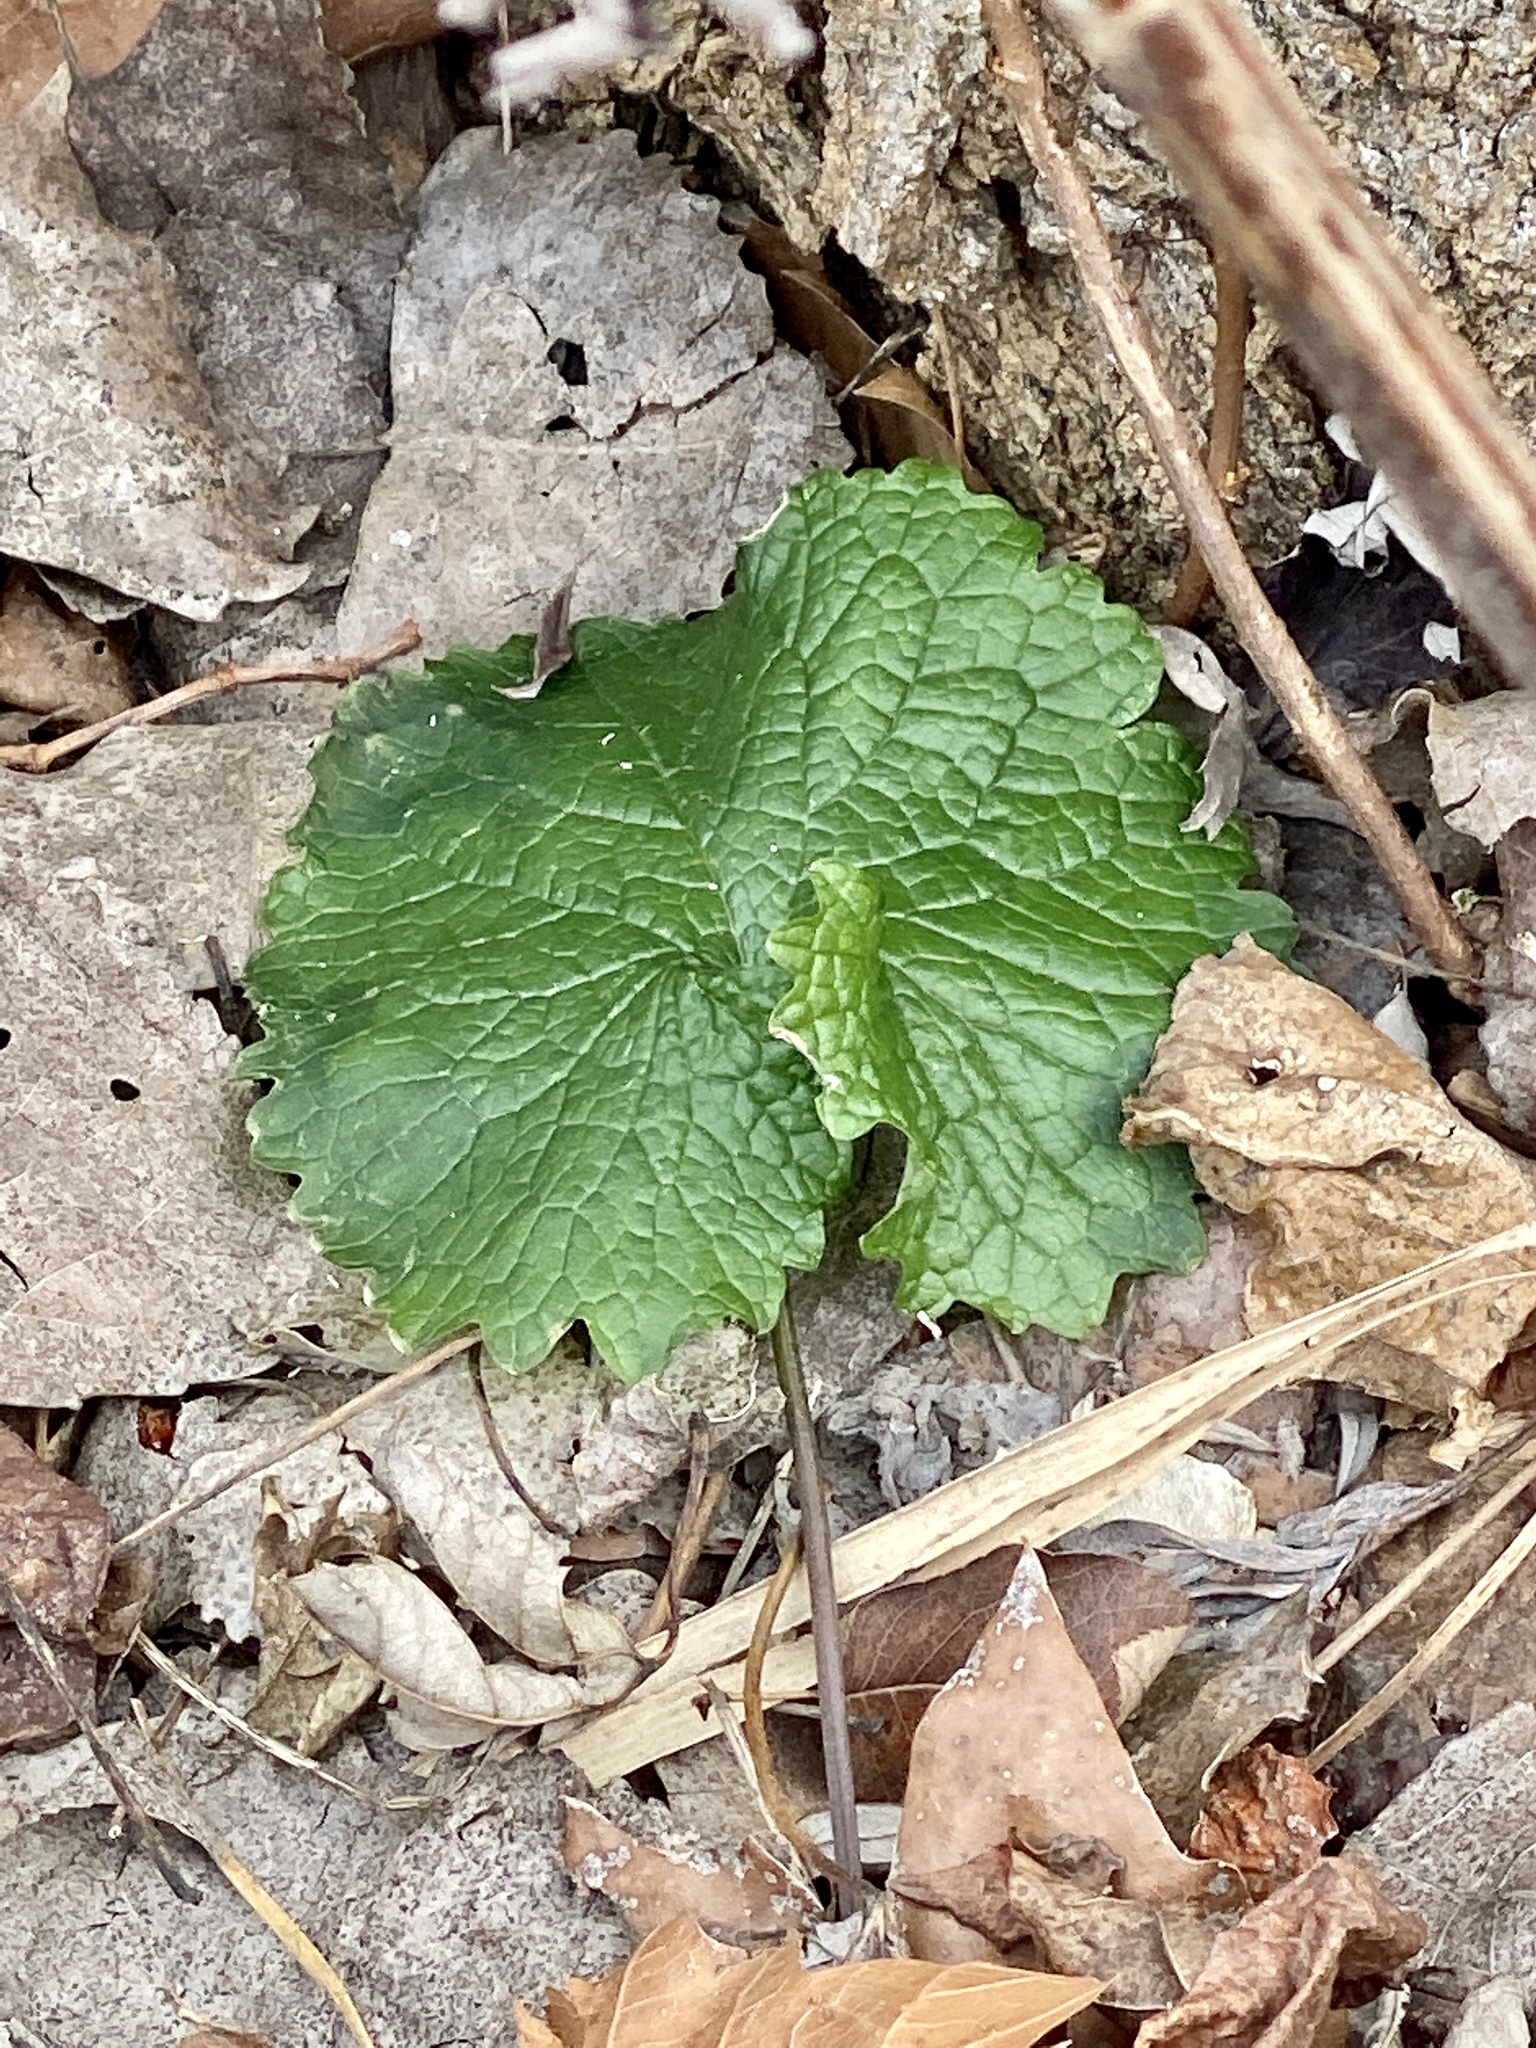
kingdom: Plantae
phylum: Tracheophyta
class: Magnoliopsida
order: Brassicales
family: Brassicaceae
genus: Alliaria
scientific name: Alliaria petiolata
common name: Garlic mustard
